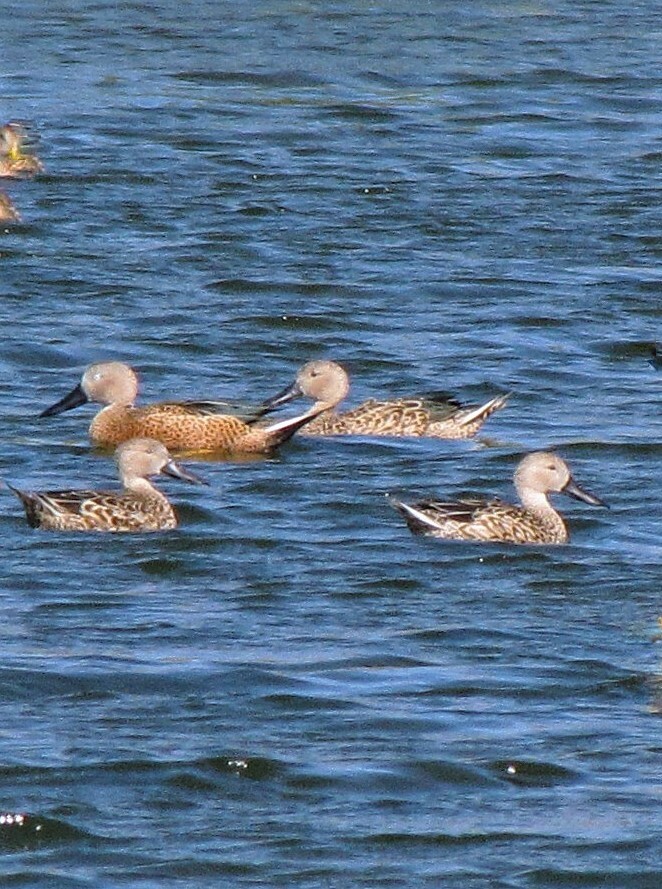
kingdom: Animalia
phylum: Chordata
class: Aves
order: Anseriformes
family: Anatidae
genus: Spatula
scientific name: Spatula platalea
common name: Red shoveler
